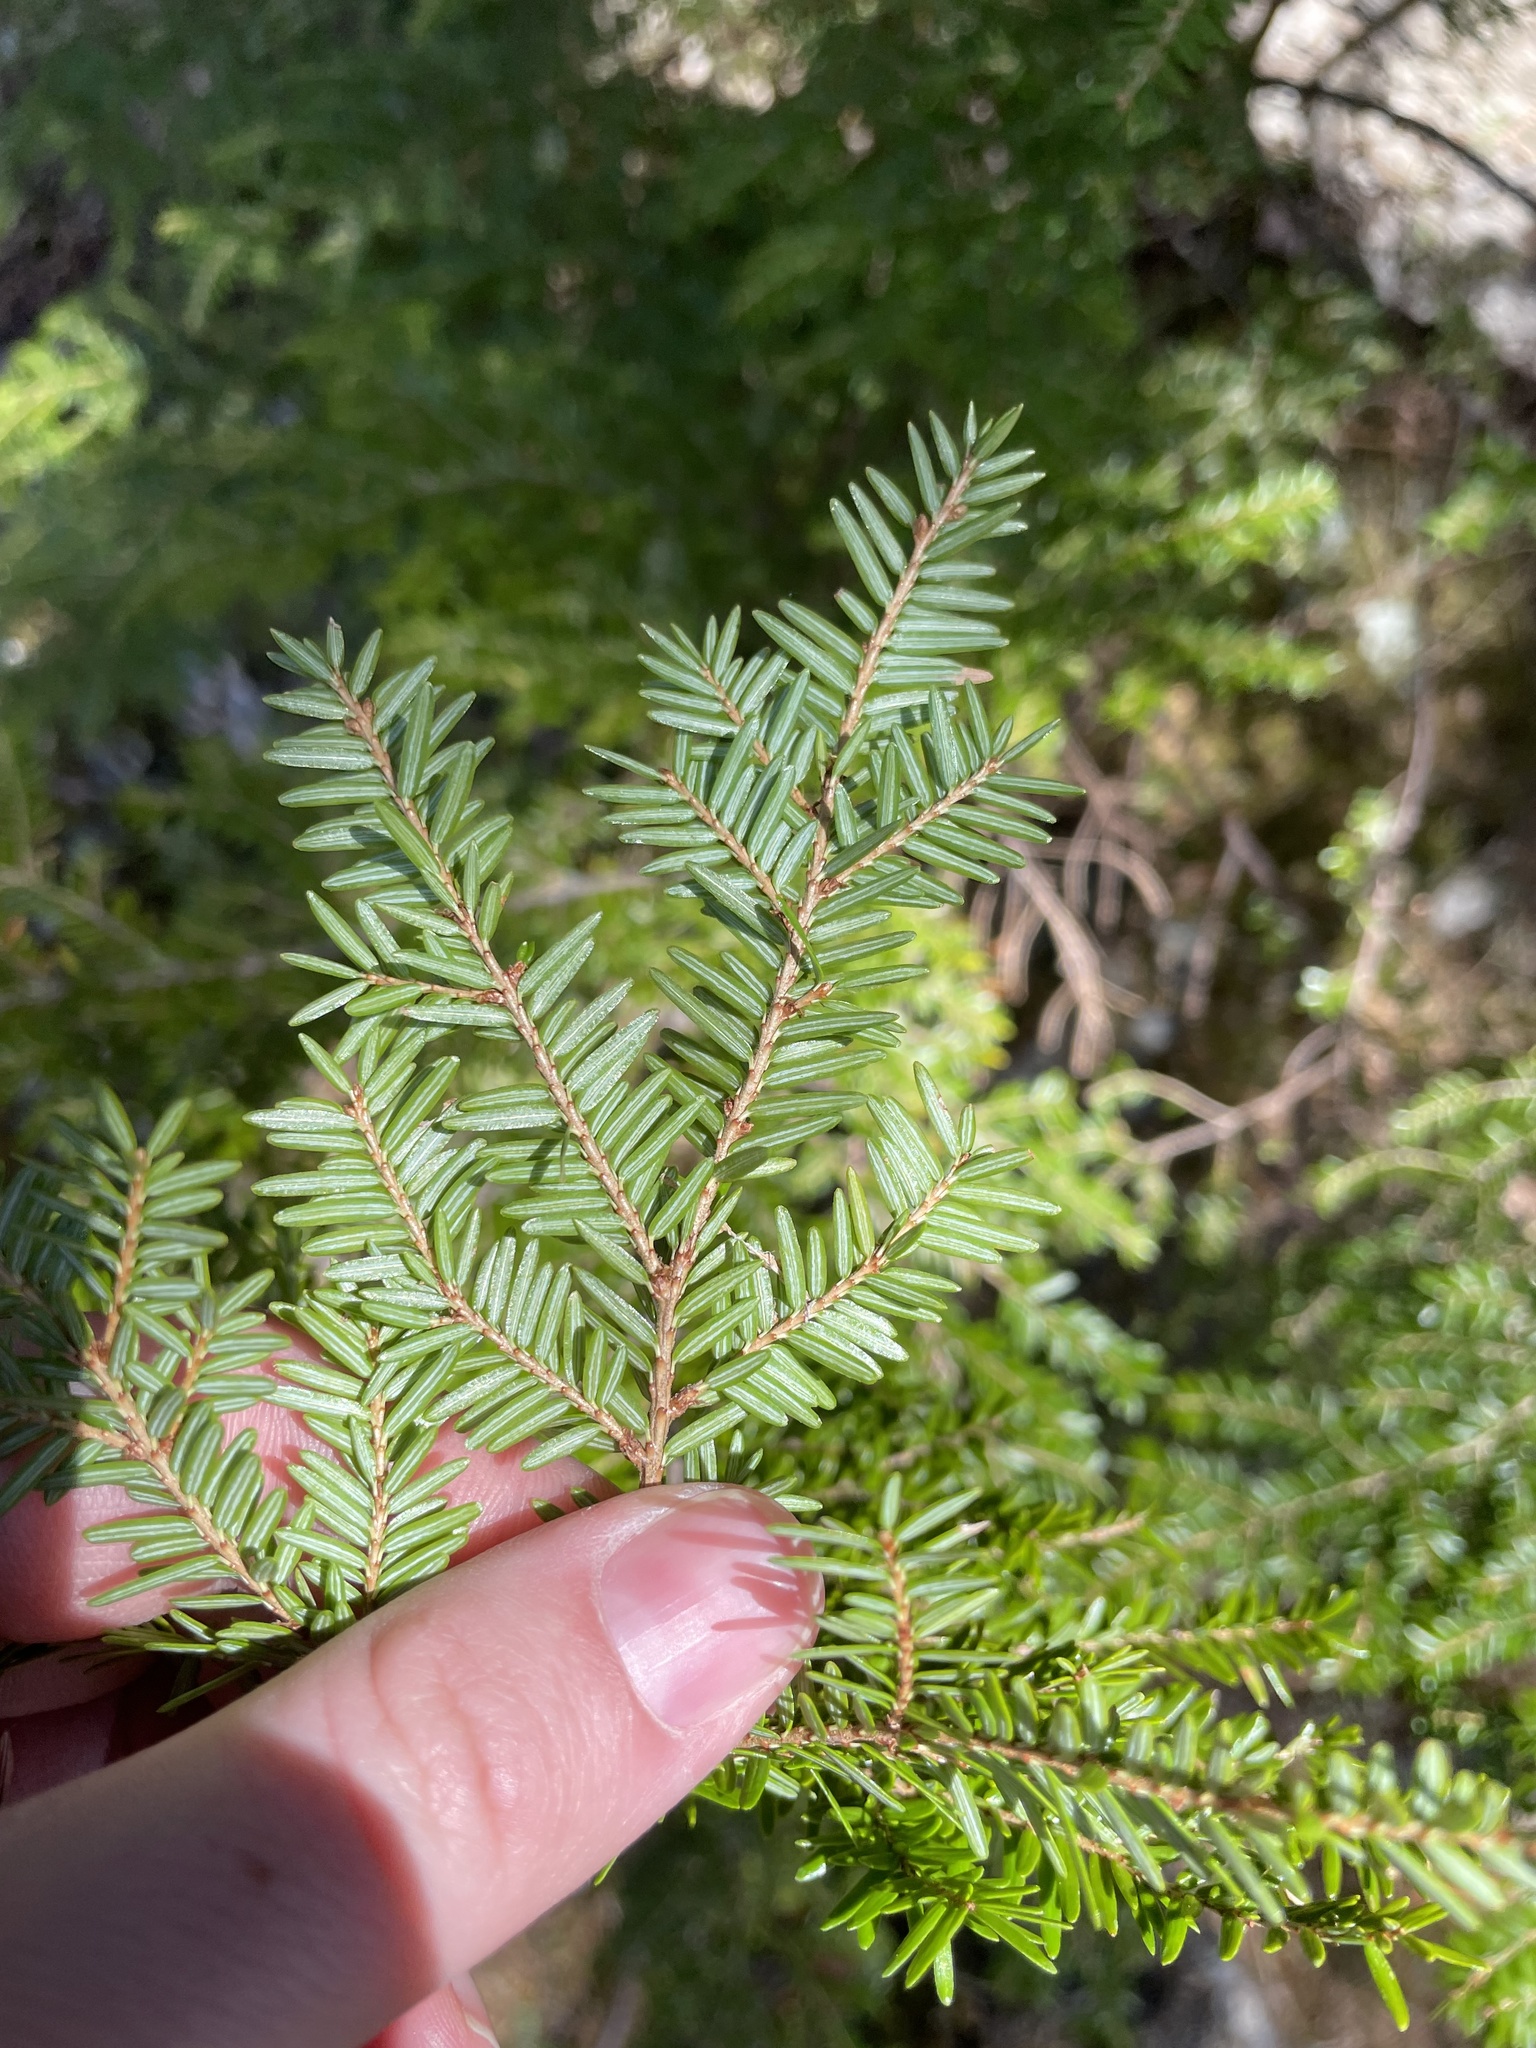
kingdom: Plantae
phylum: Tracheophyta
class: Pinopsida
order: Pinales
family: Pinaceae
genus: Tsuga
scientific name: Tsuga canadensis
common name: Eastern hemlock
